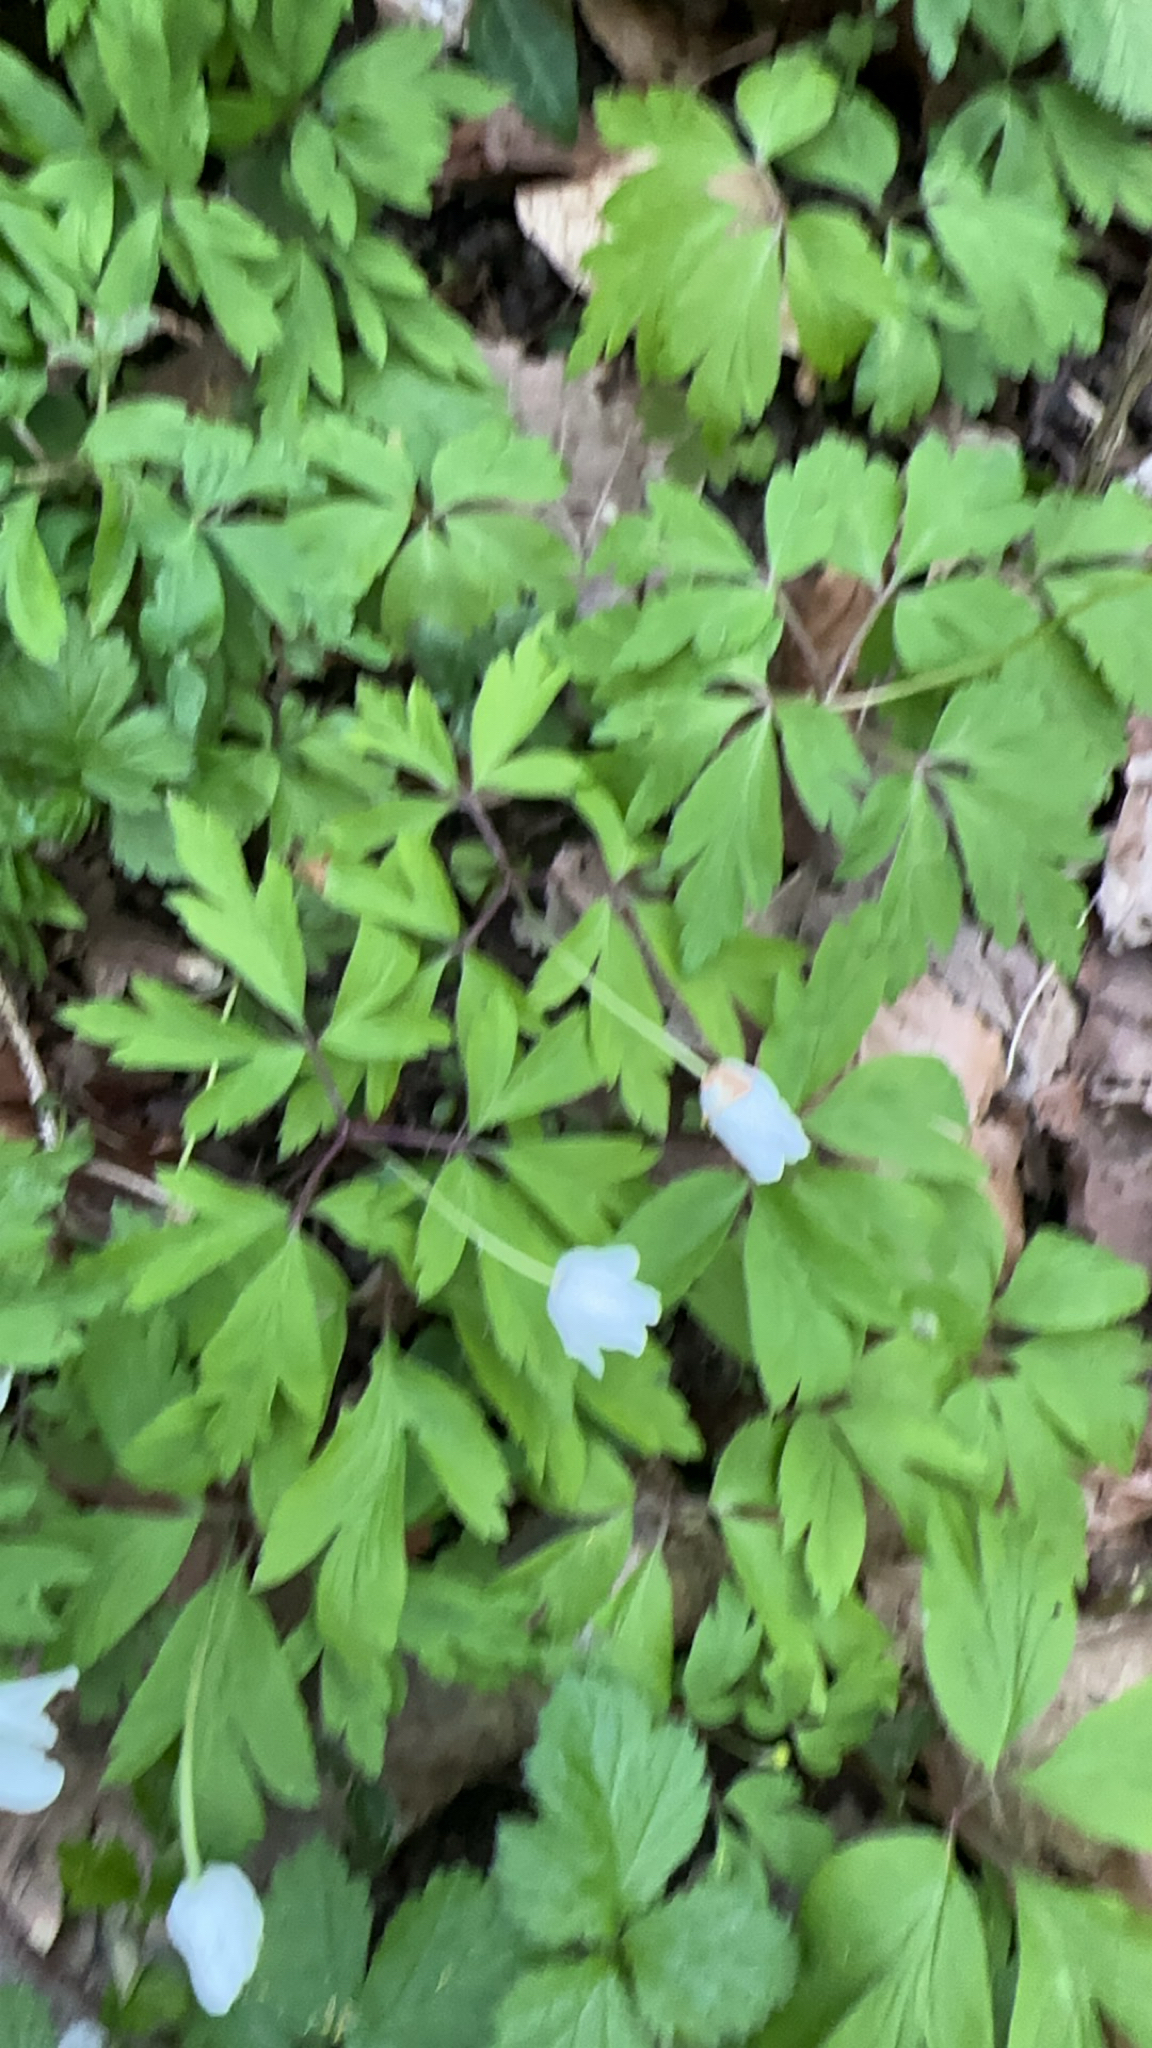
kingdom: Plantae
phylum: Tracheophyta
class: Magnoliopsida
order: Ranunculales
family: Ranunculaceae
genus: Anemone
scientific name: Anemone nemorosa
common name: Wood anemone
